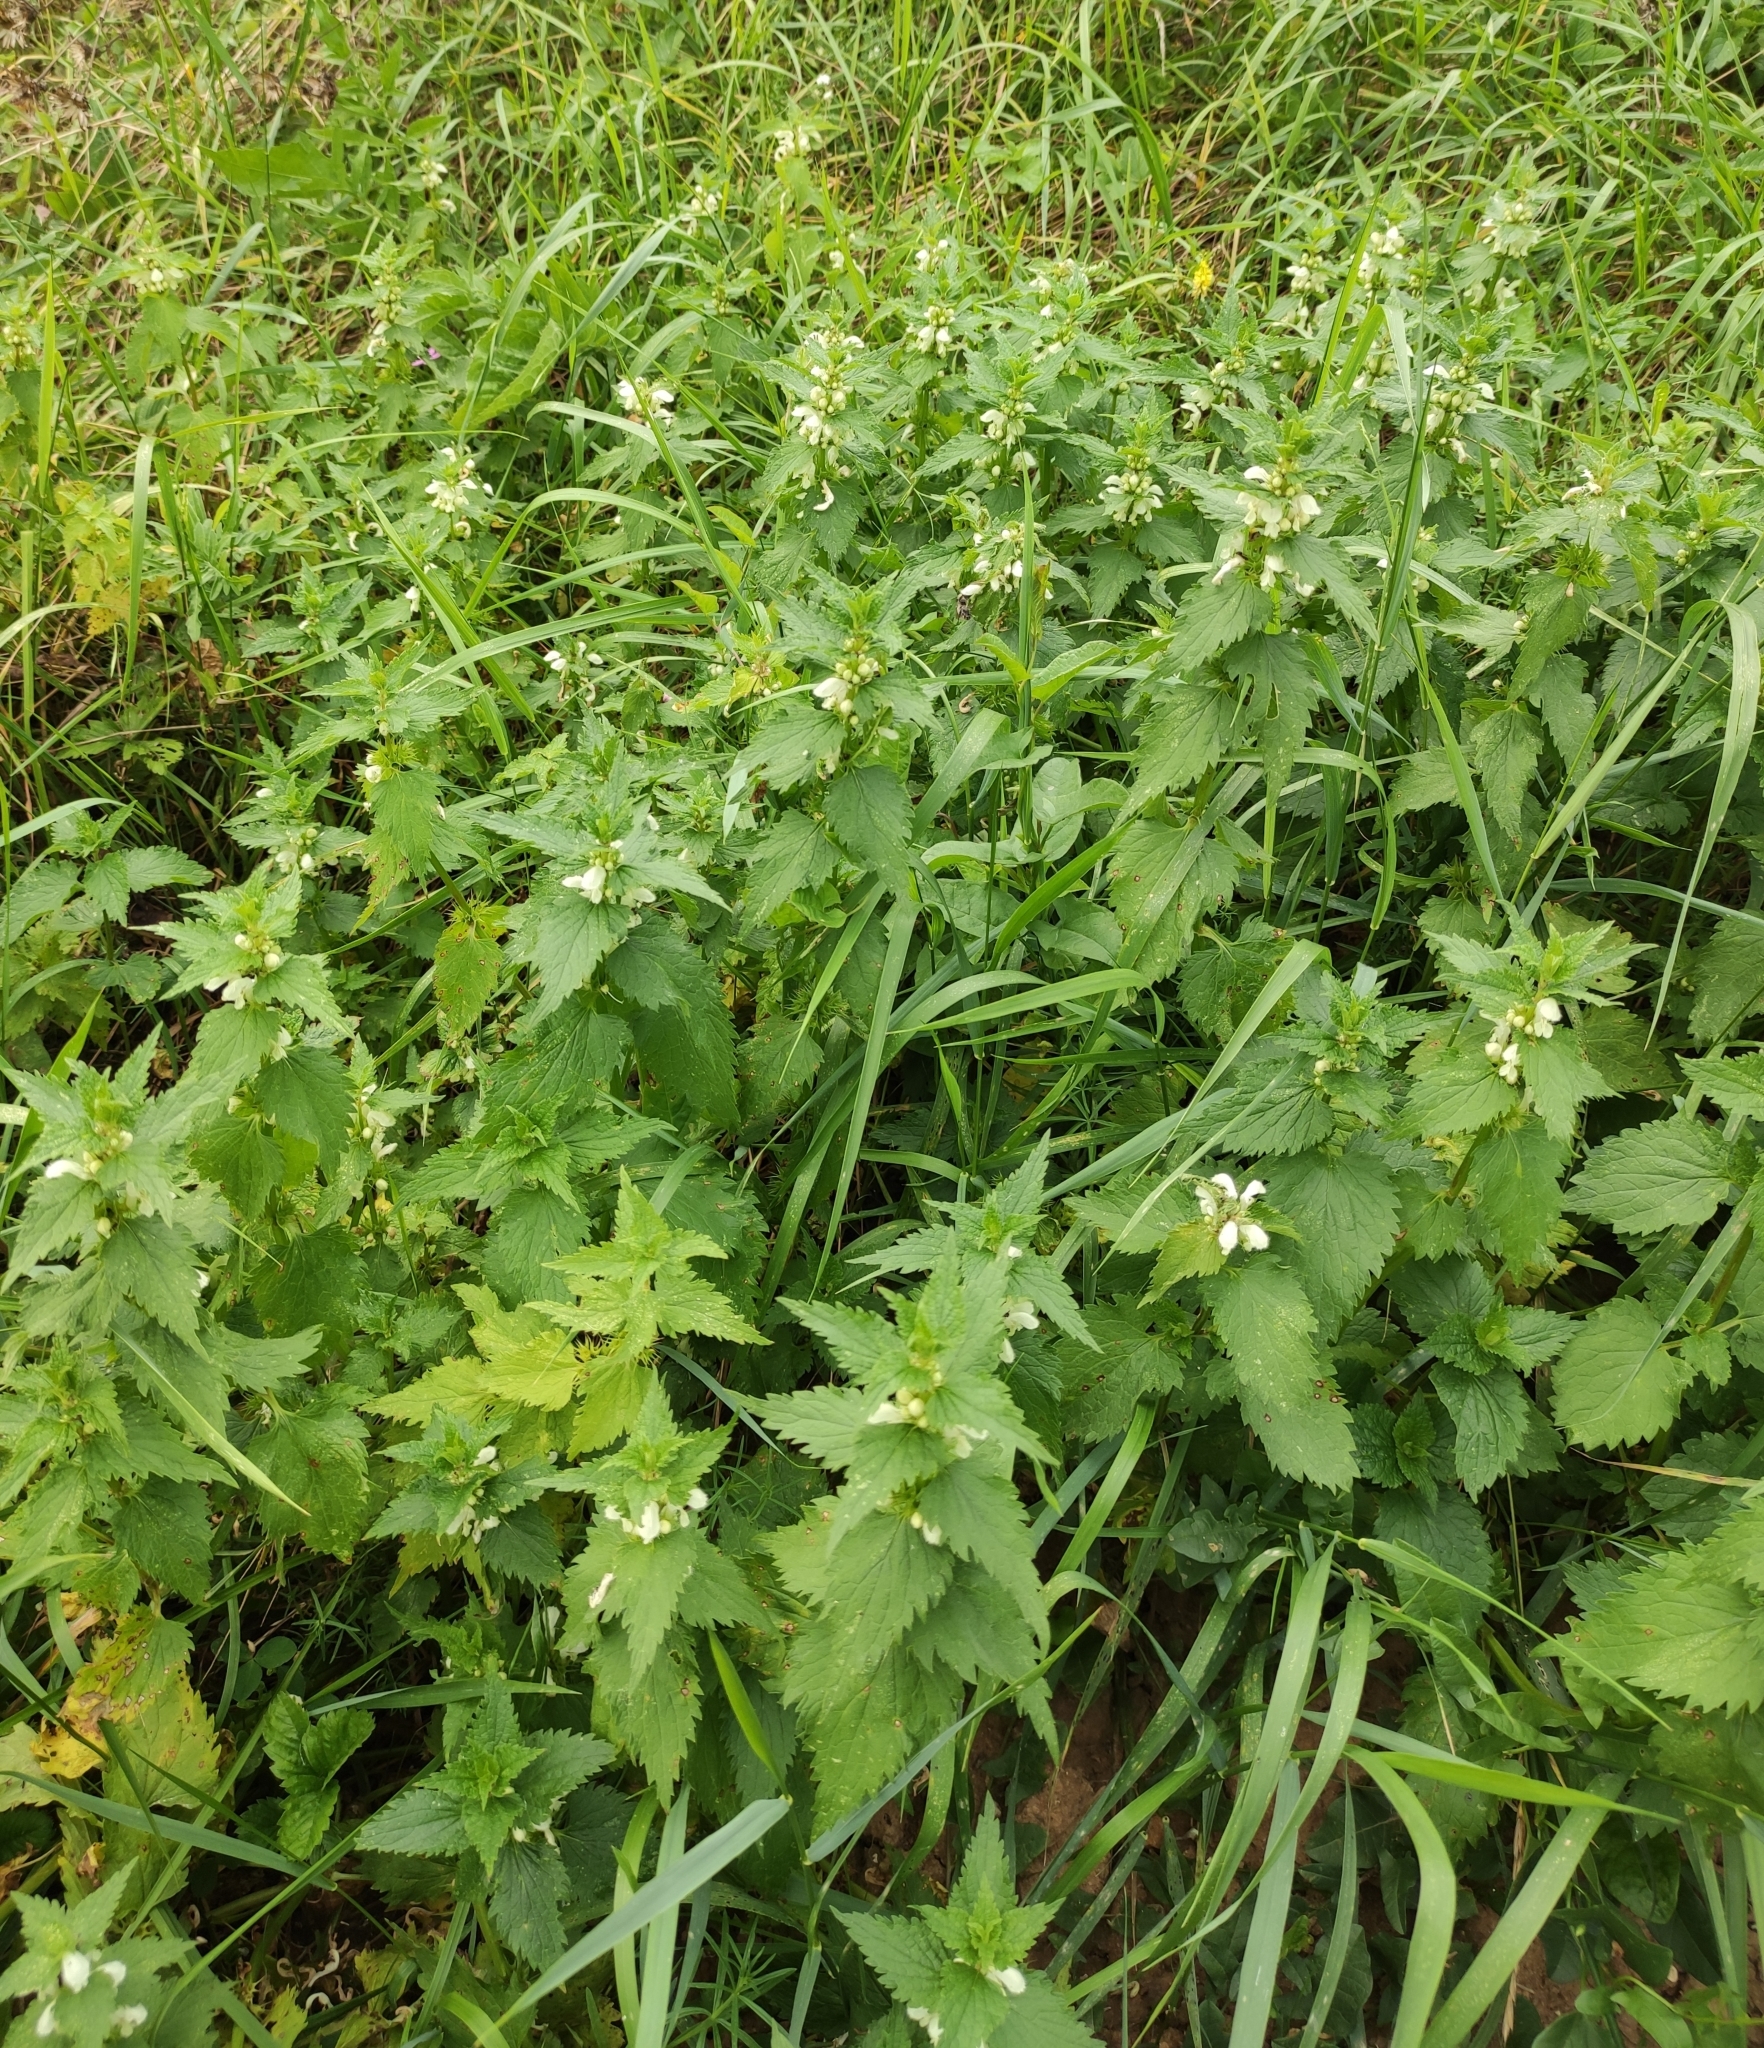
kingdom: Plantae
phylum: Tracheophyta
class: Magnoliopsida
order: Lamiales
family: Lamiaceae
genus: Lamium
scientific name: Lamium album
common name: White dead-nettle
